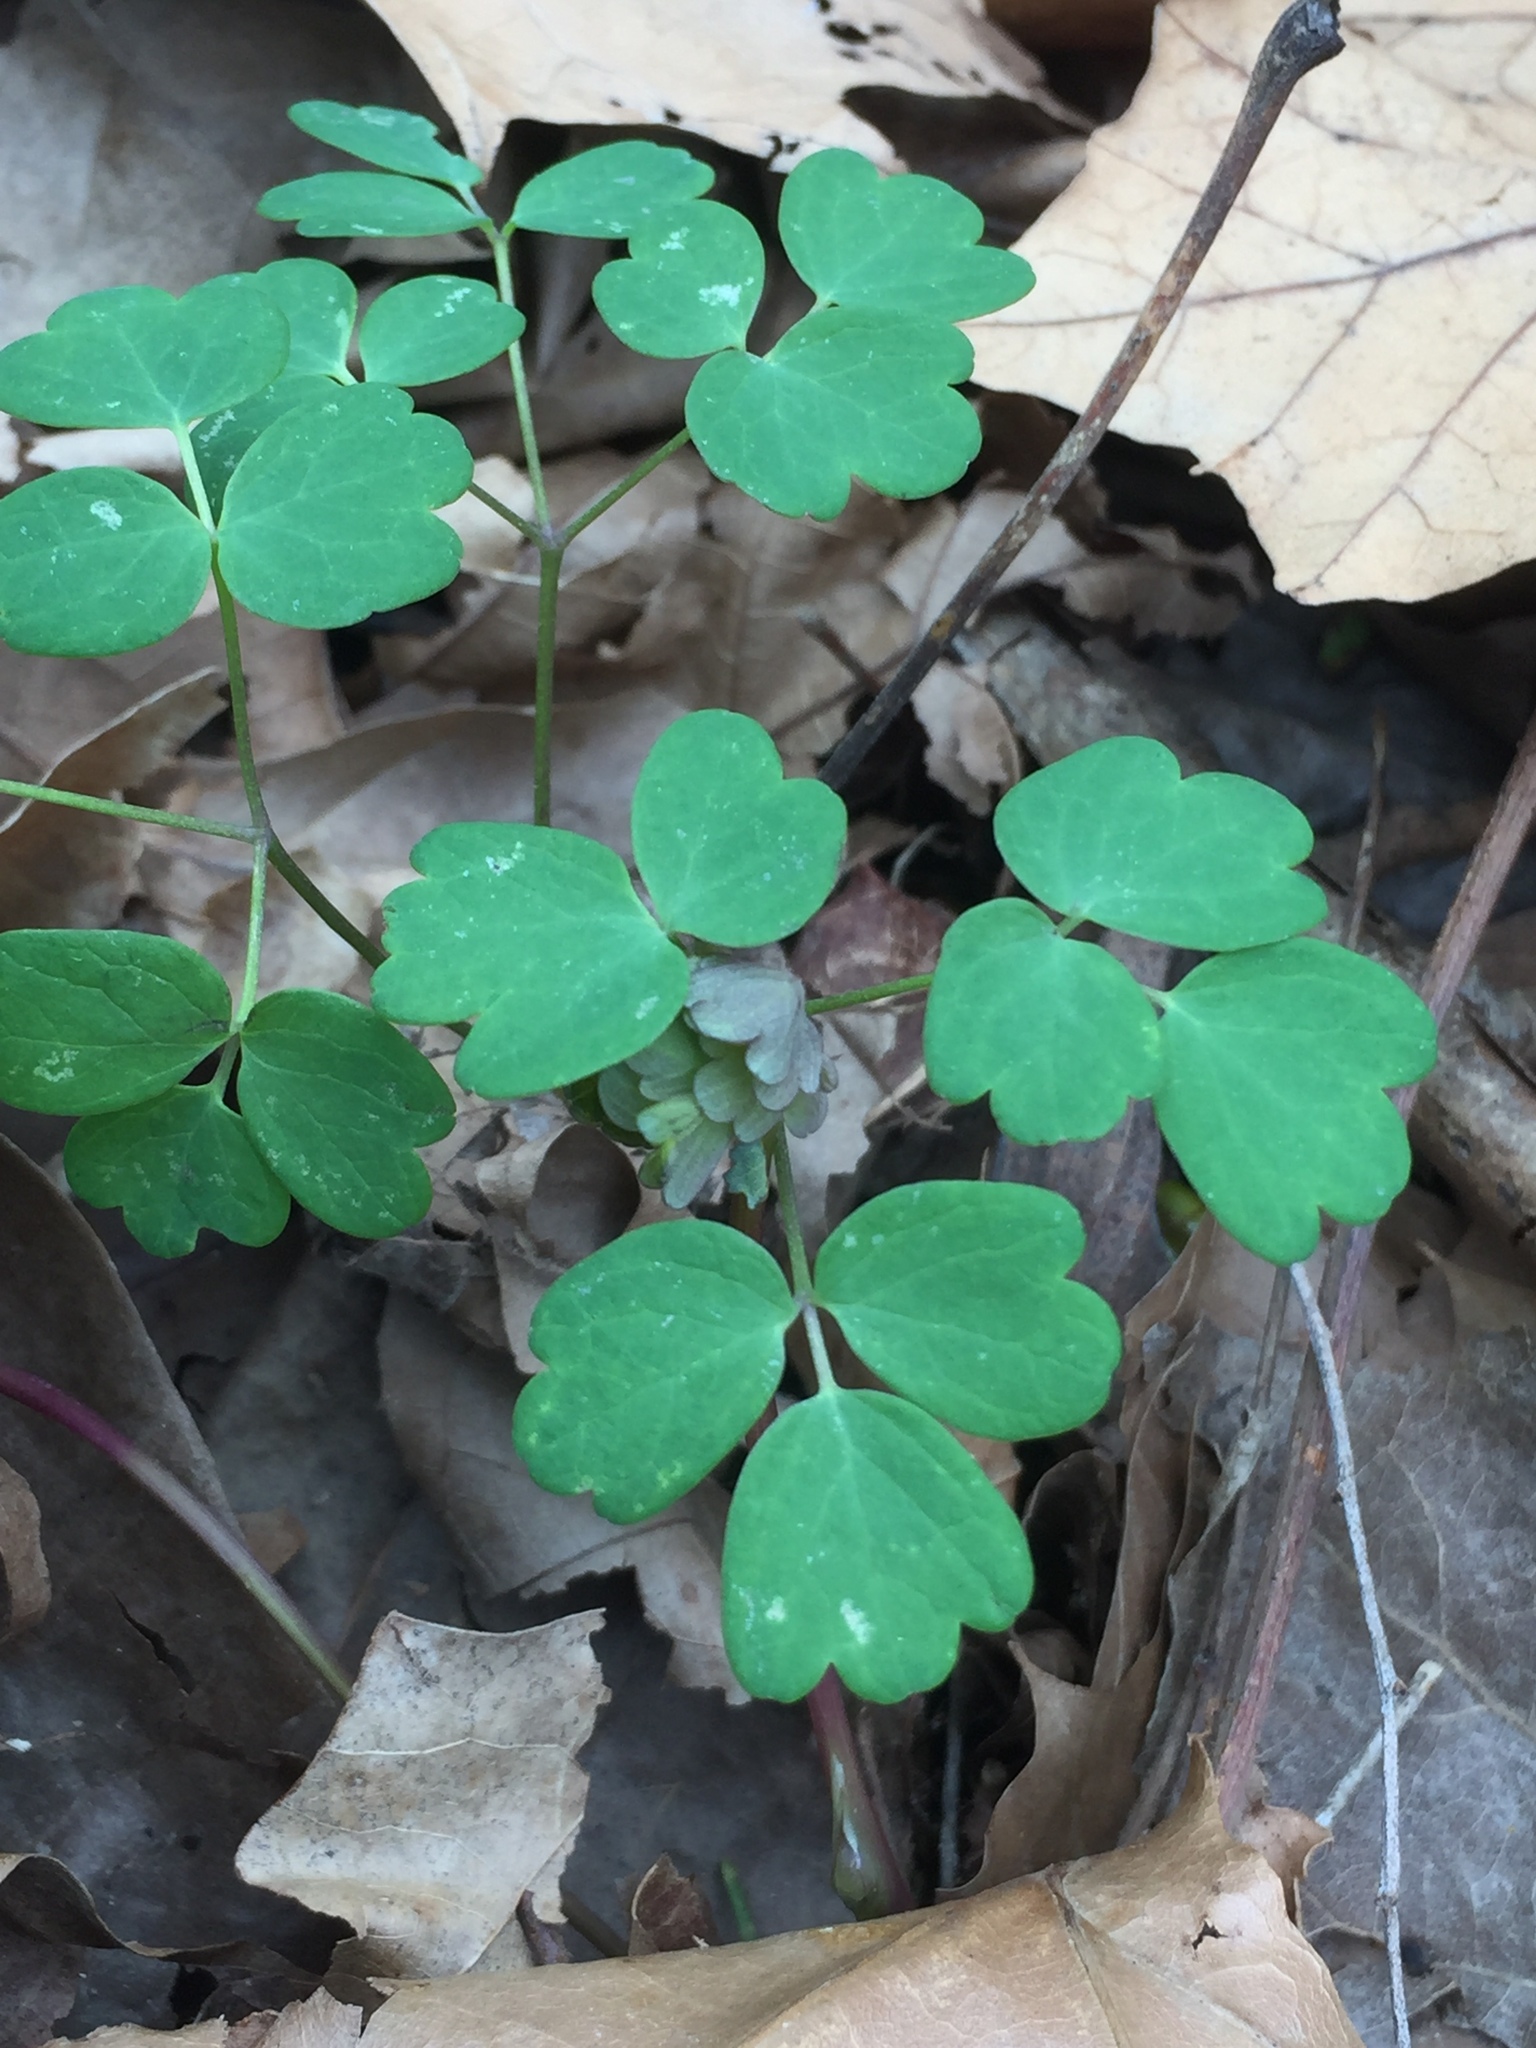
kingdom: Plantae
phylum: Tracheophyta
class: Magnoliopsida
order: Ranunculales
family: Ranunculaceae
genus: Thalictrum
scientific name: Thalictrum thalictroides
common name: Rue-anemone
